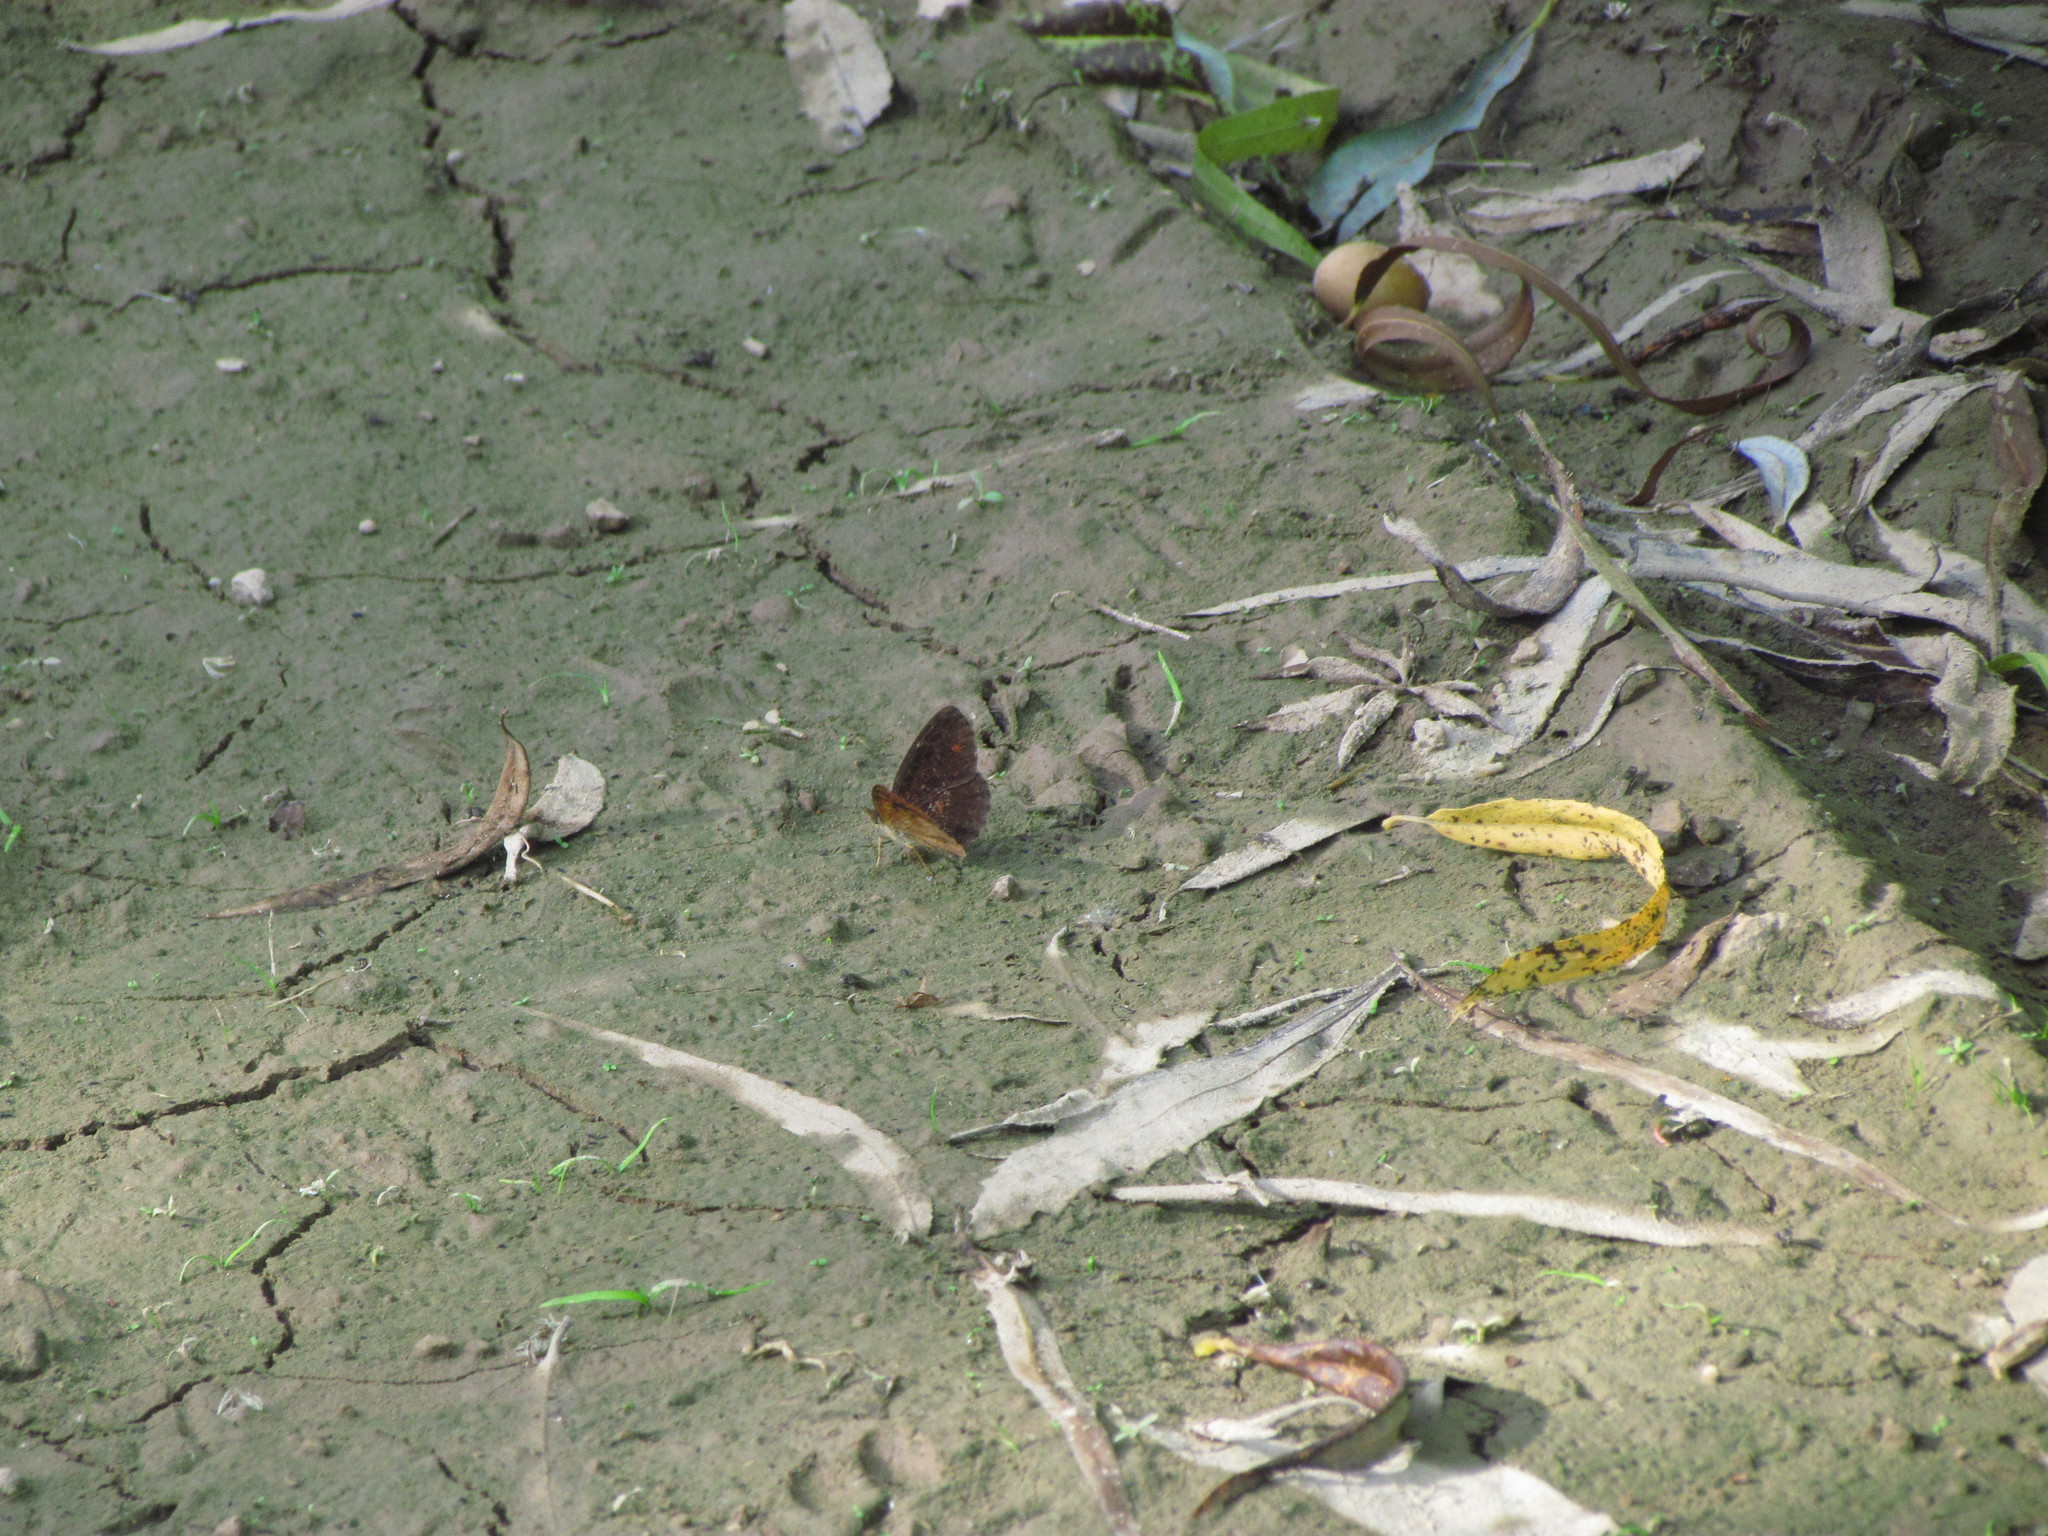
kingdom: Animalia
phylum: Arthropoda
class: Insecta
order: Lepidoptera
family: Nymphalidae
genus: Ortilia
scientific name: Ortilia velica
